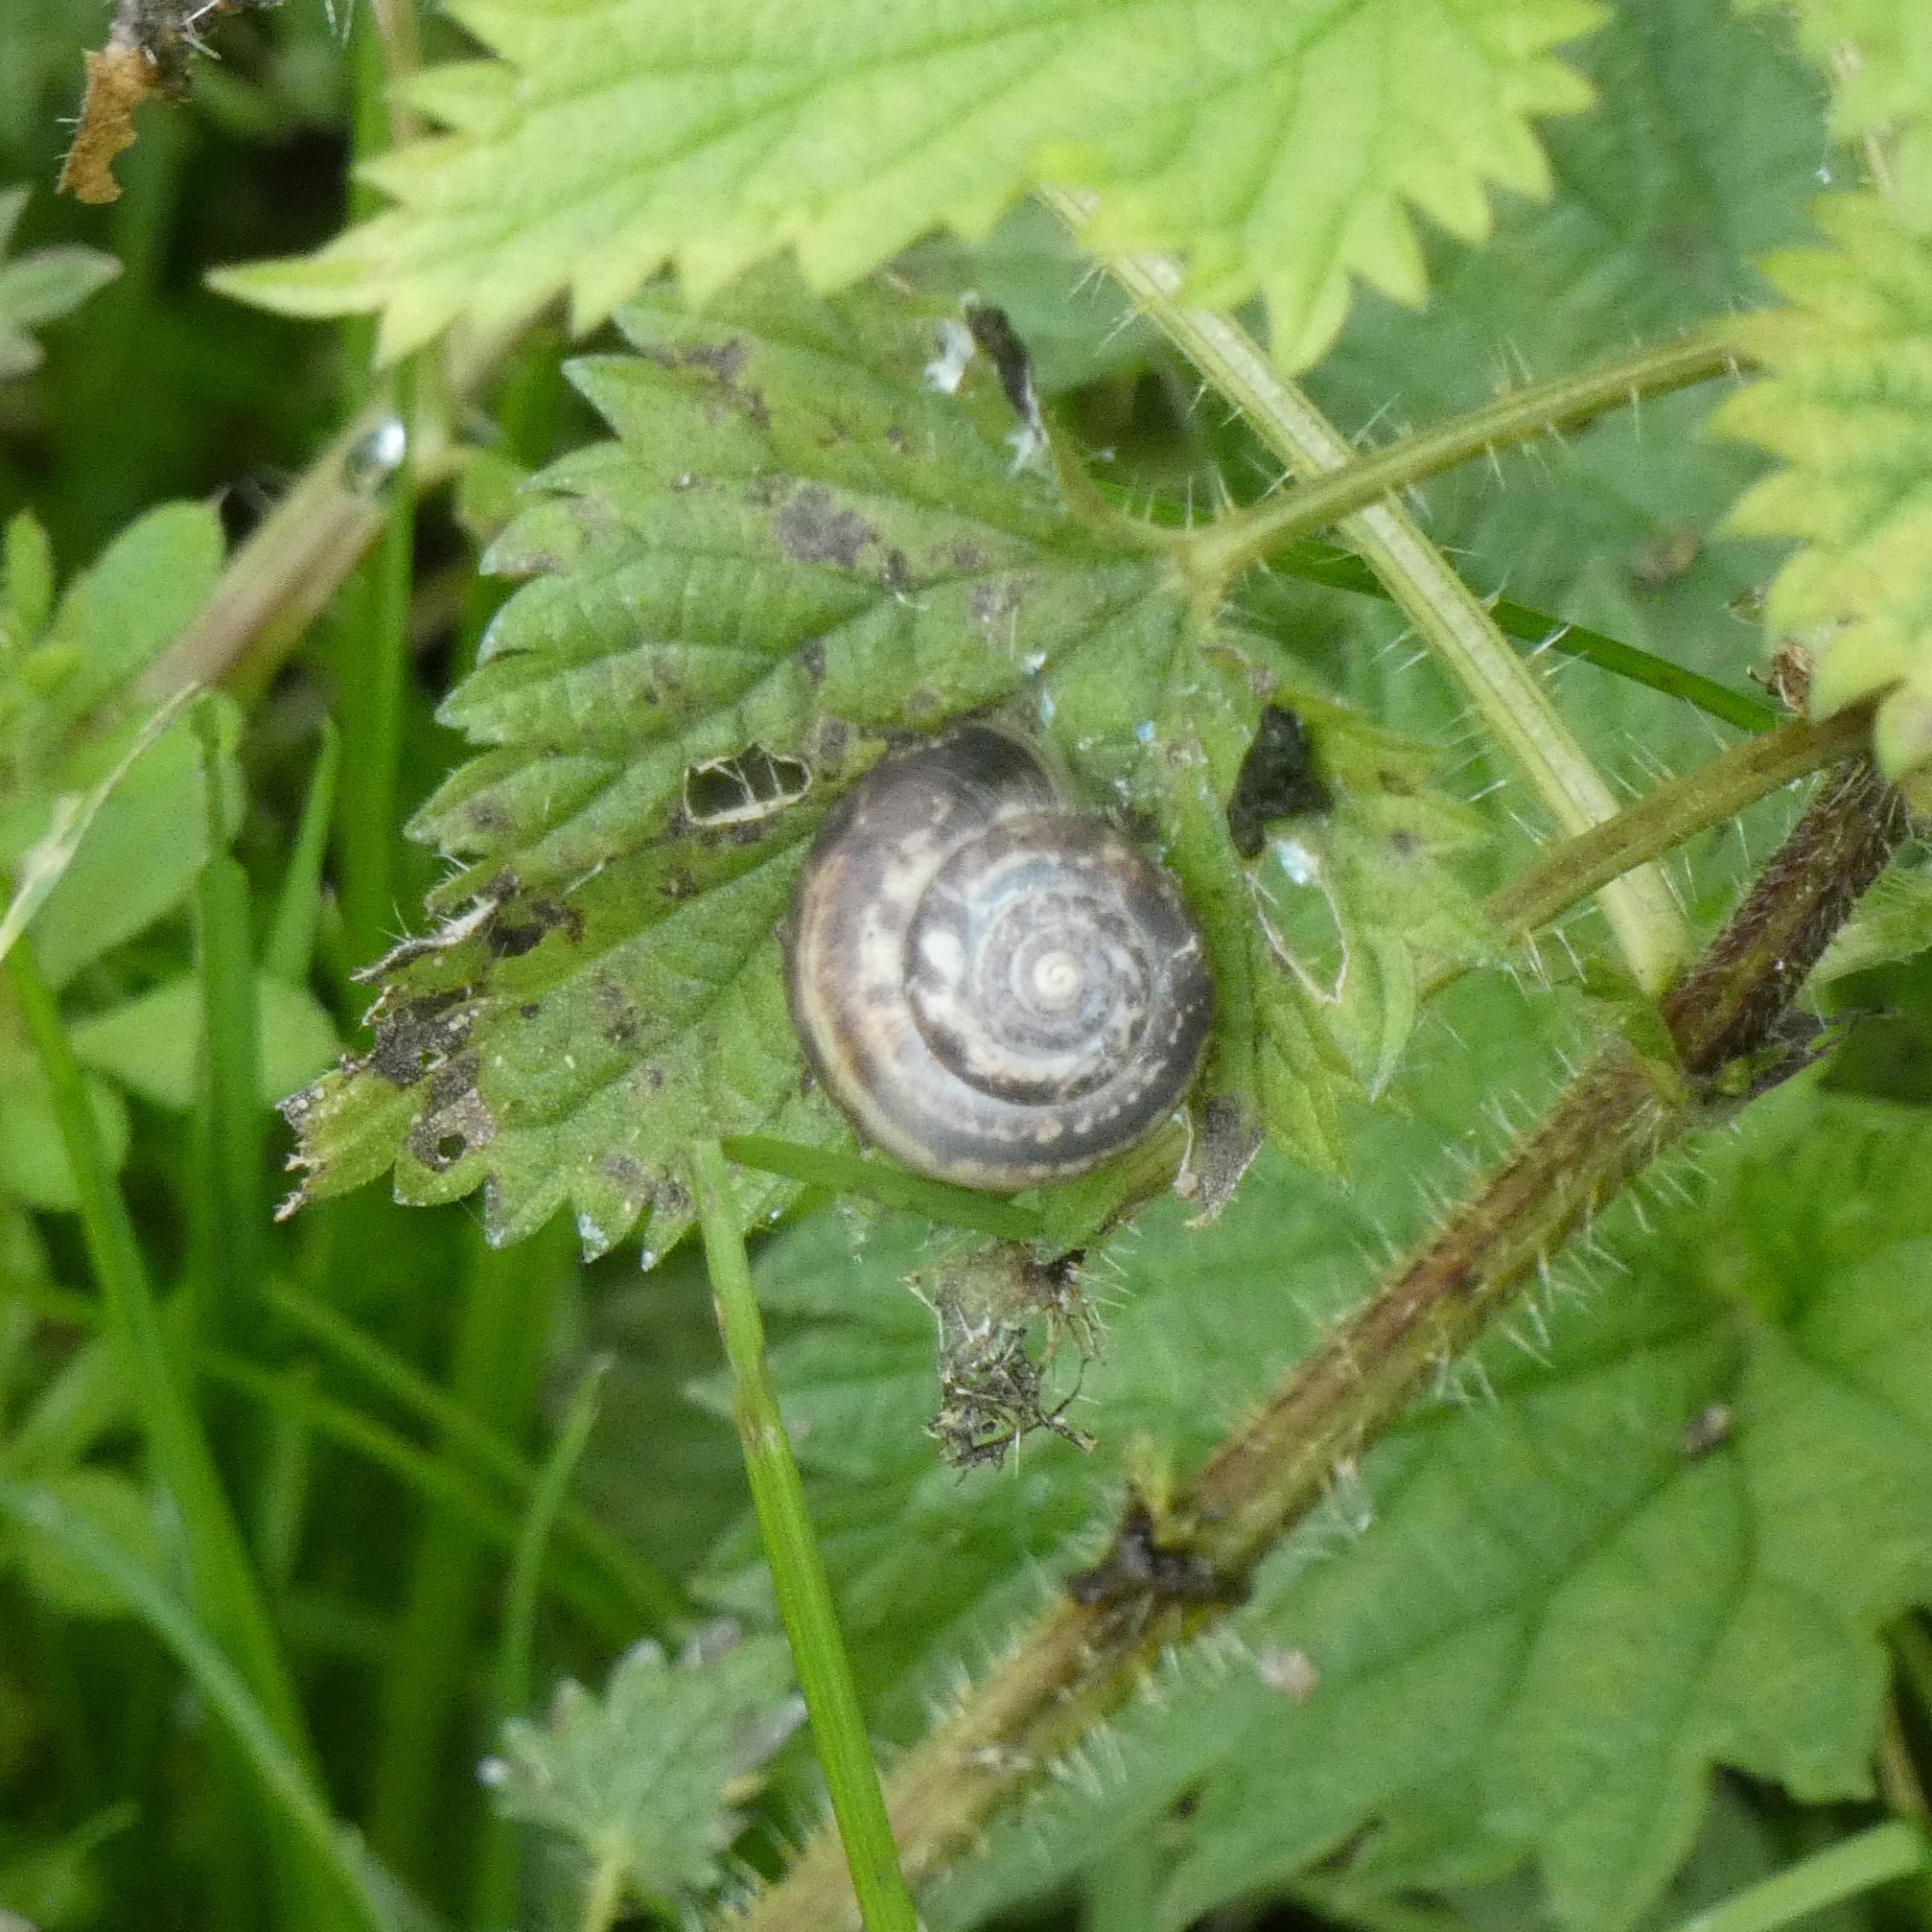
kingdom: Animalia
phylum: Mollusca
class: Gastropoda
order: Stylommatophora
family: Hygromiidae
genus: Monacha
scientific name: Monacha cantiana
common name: Kentish snail
